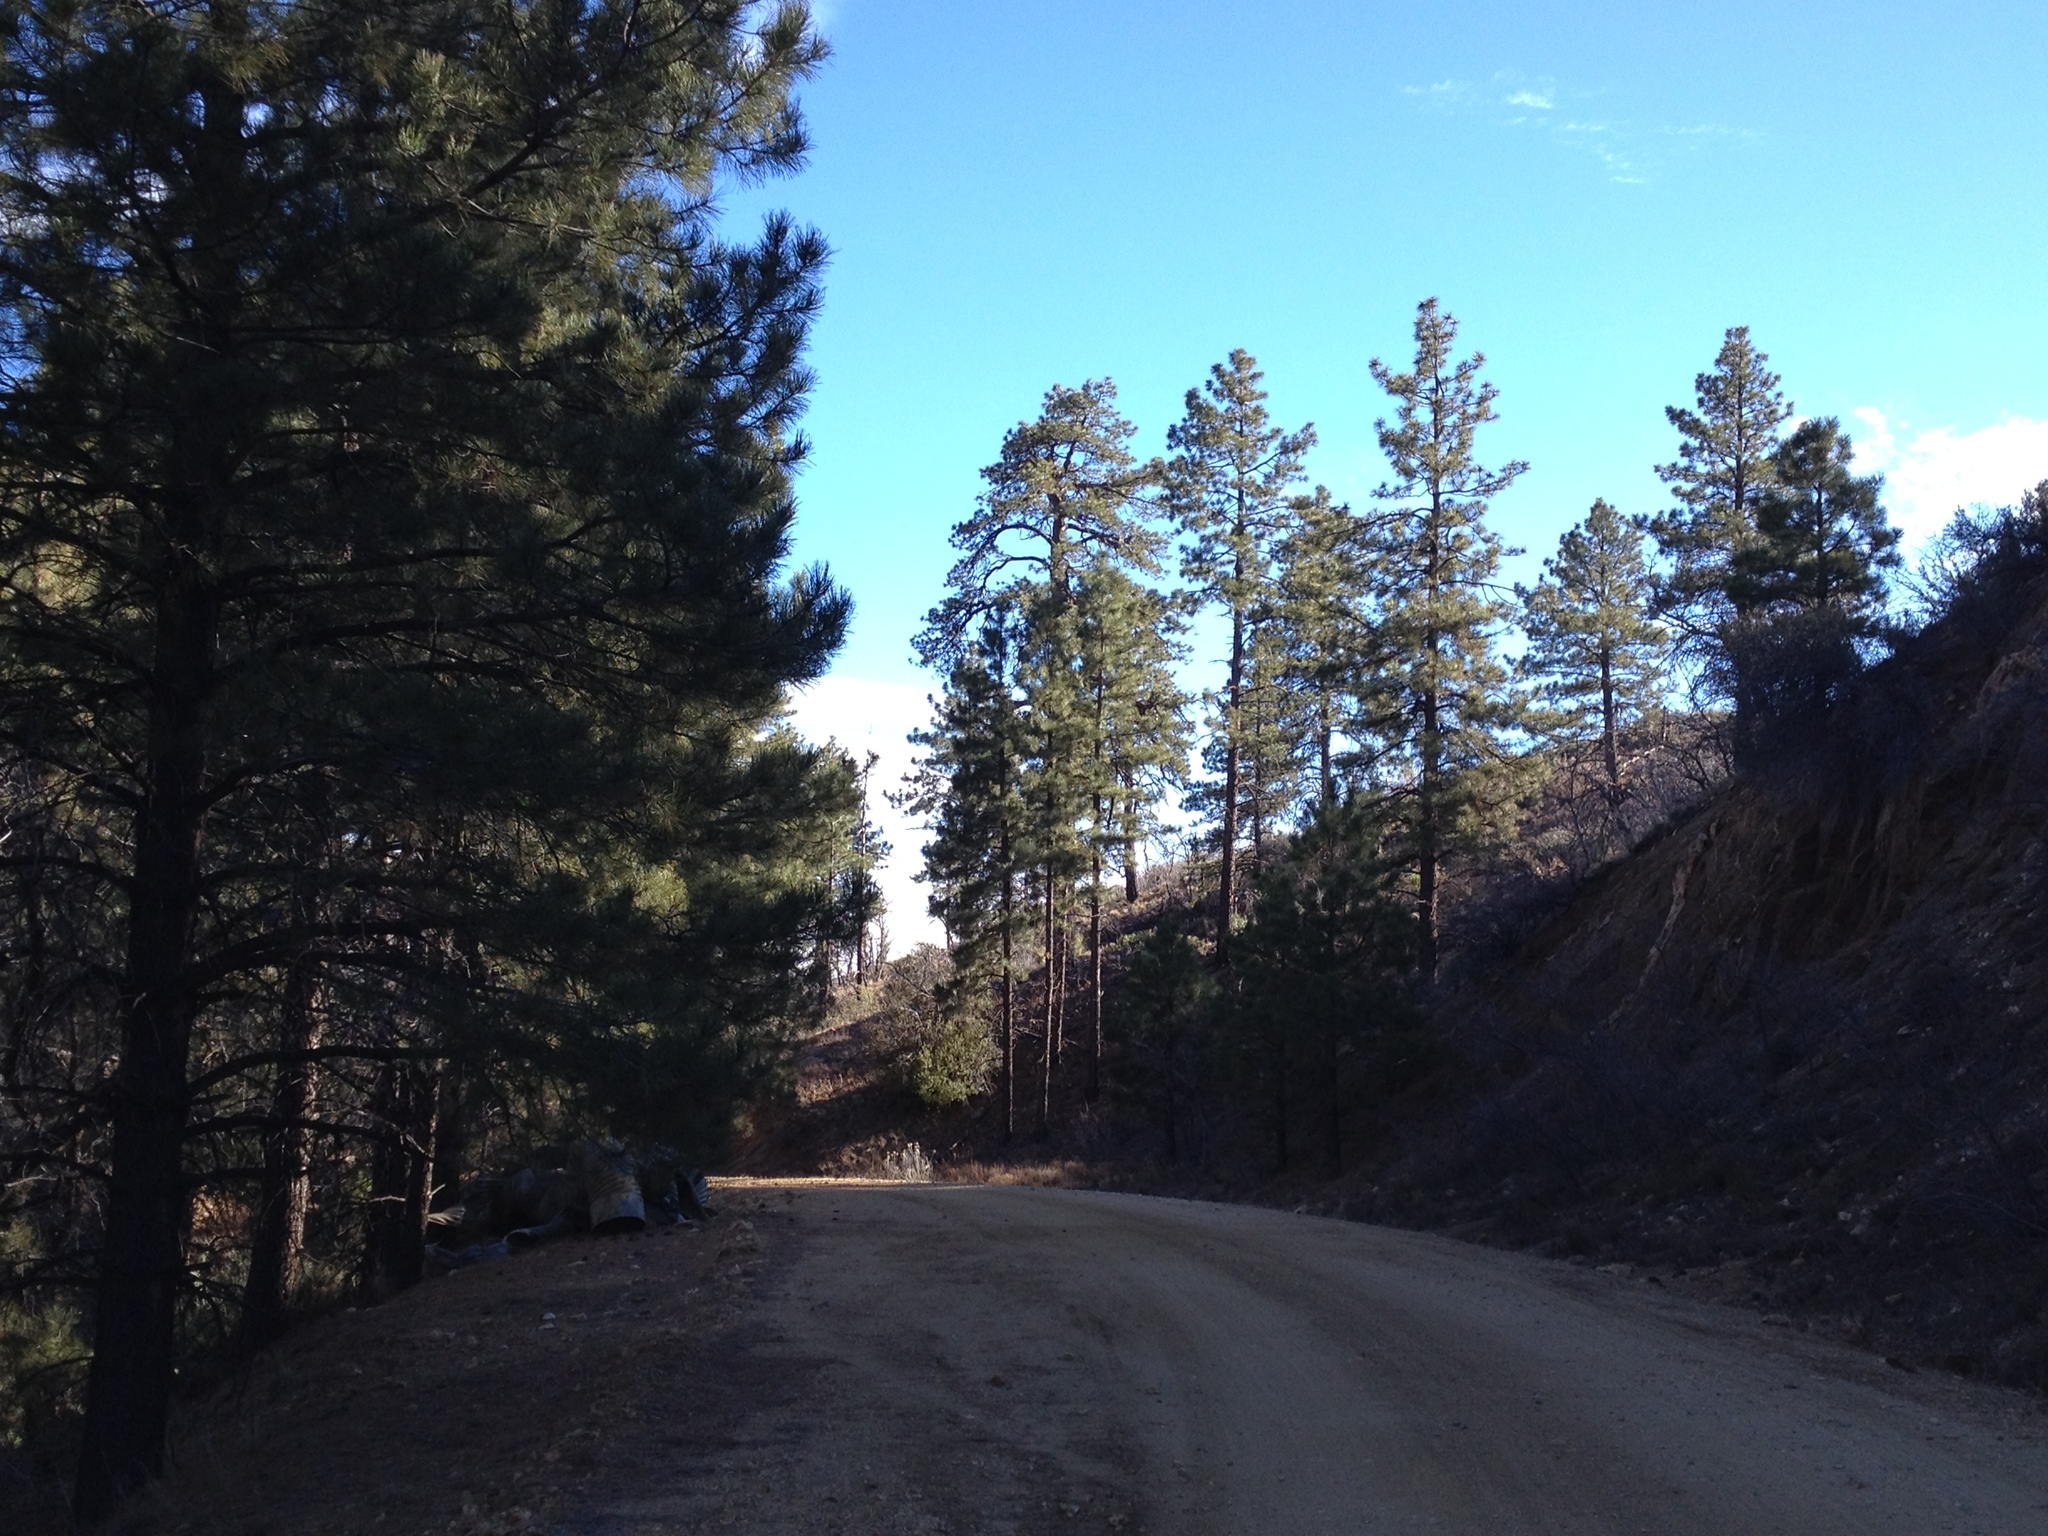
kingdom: Plantae
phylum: Tracheophyta
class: Pinopsida
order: Pinales
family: Pinaceae
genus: Pinus
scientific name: Pinus ponderosa
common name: Western yellow-pine
